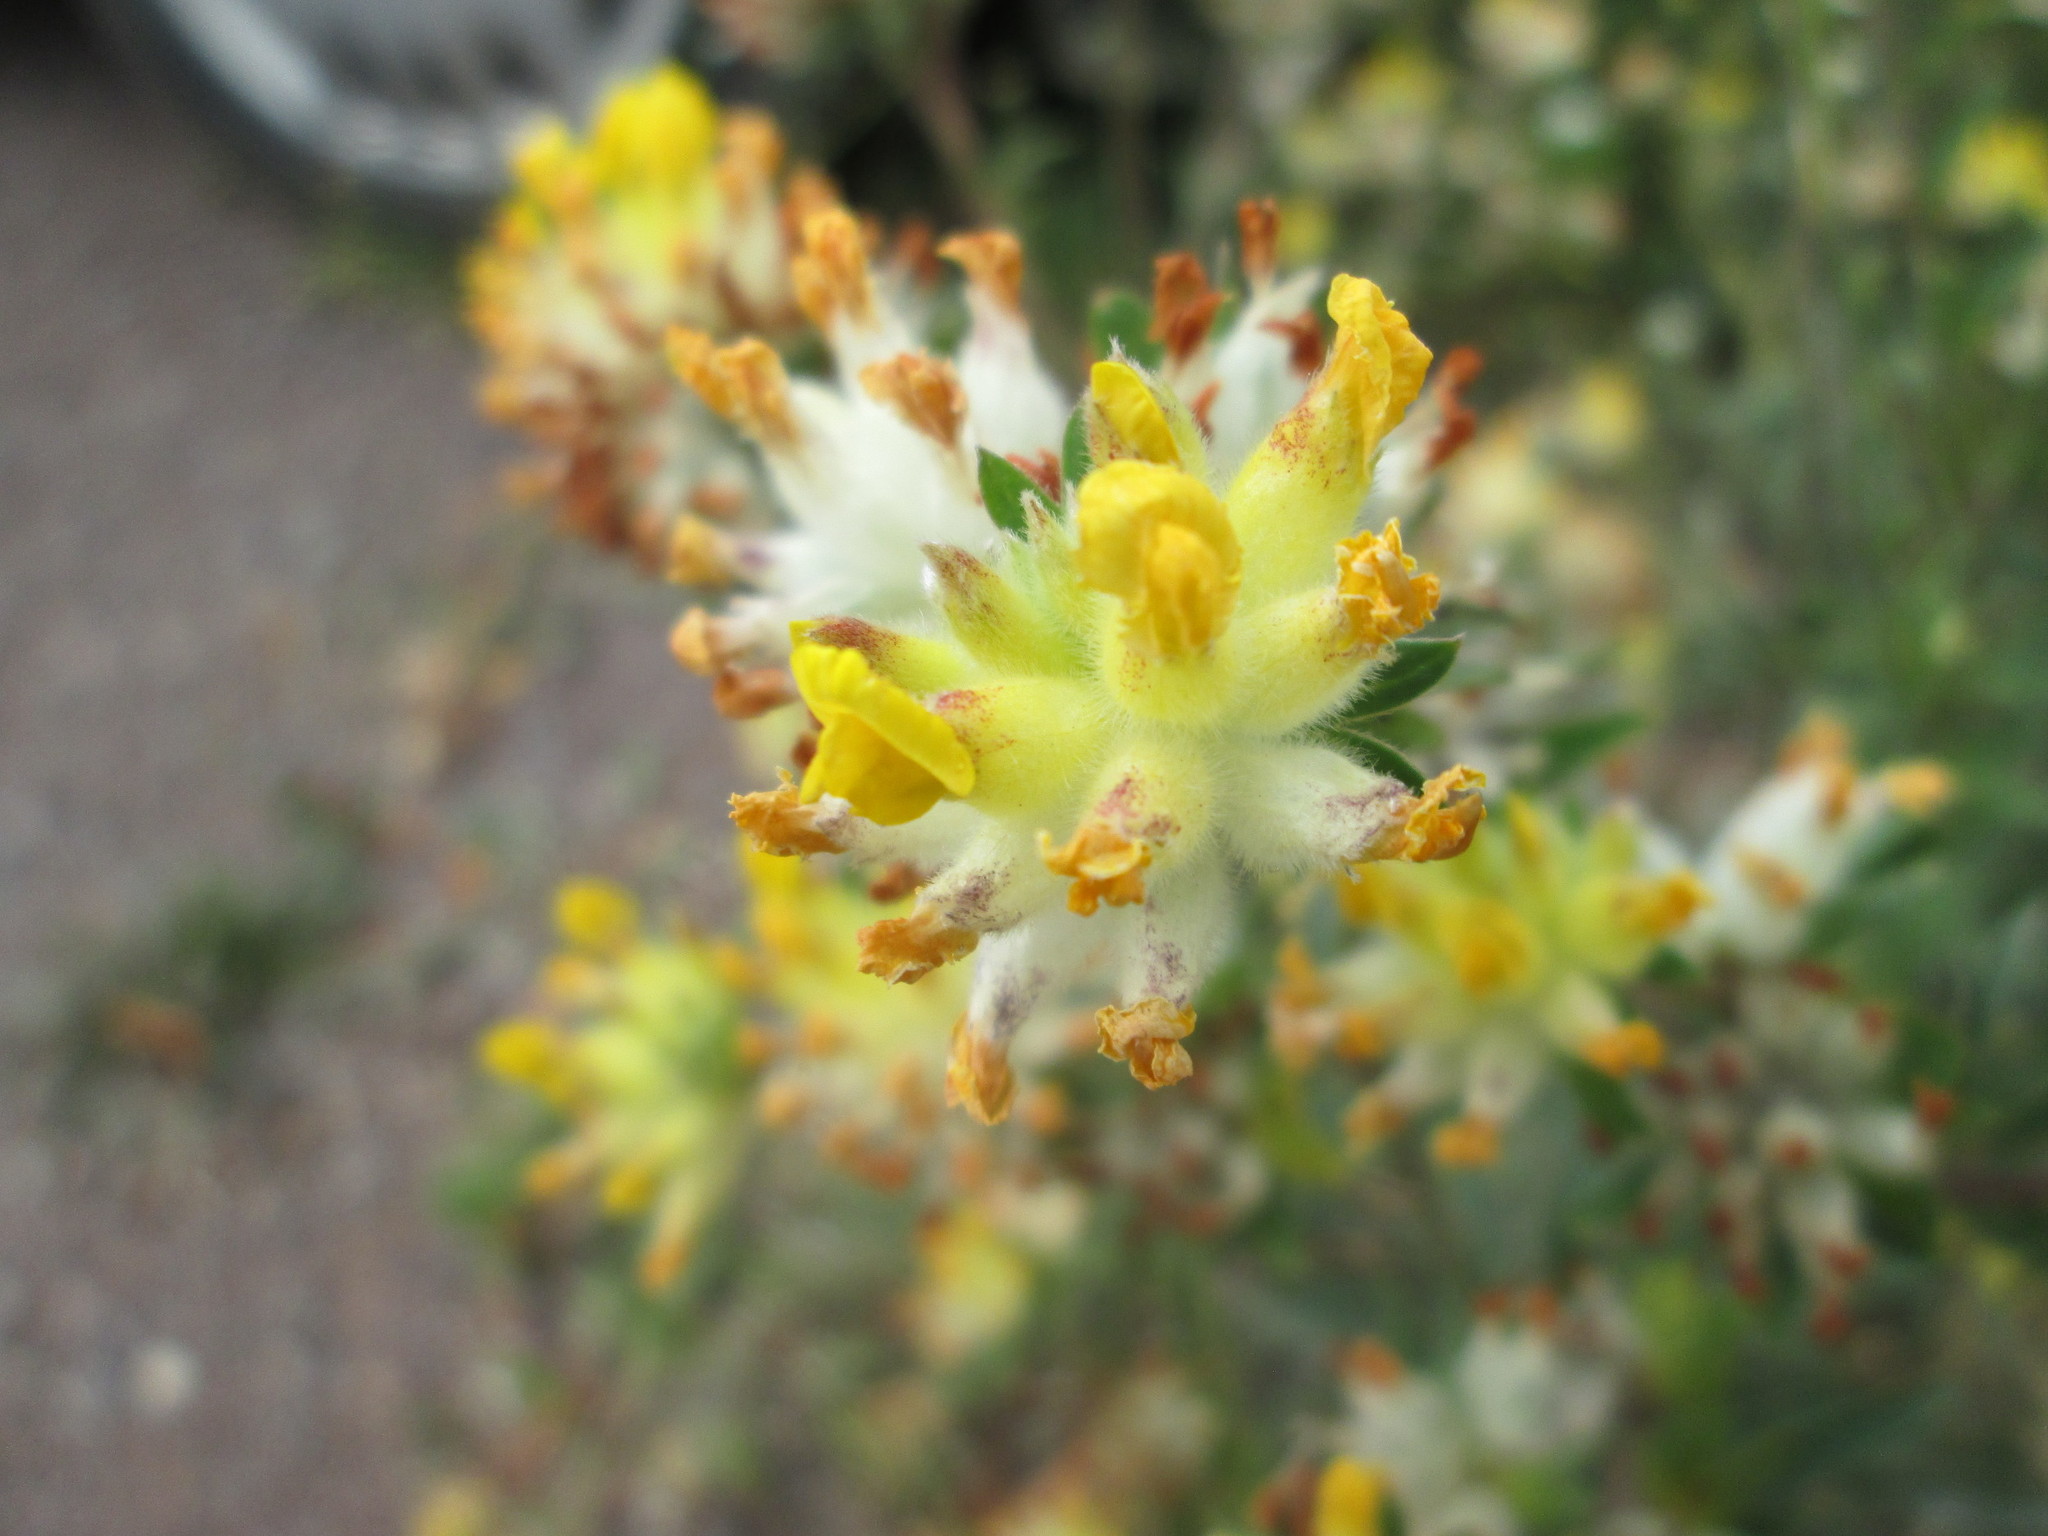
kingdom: Plantae
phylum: Tracheophyta
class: Magnoliopsida
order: Fabales
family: Fabaceae
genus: Anthyllis
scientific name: Anthyllis vulneraria
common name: Kidney vetch
